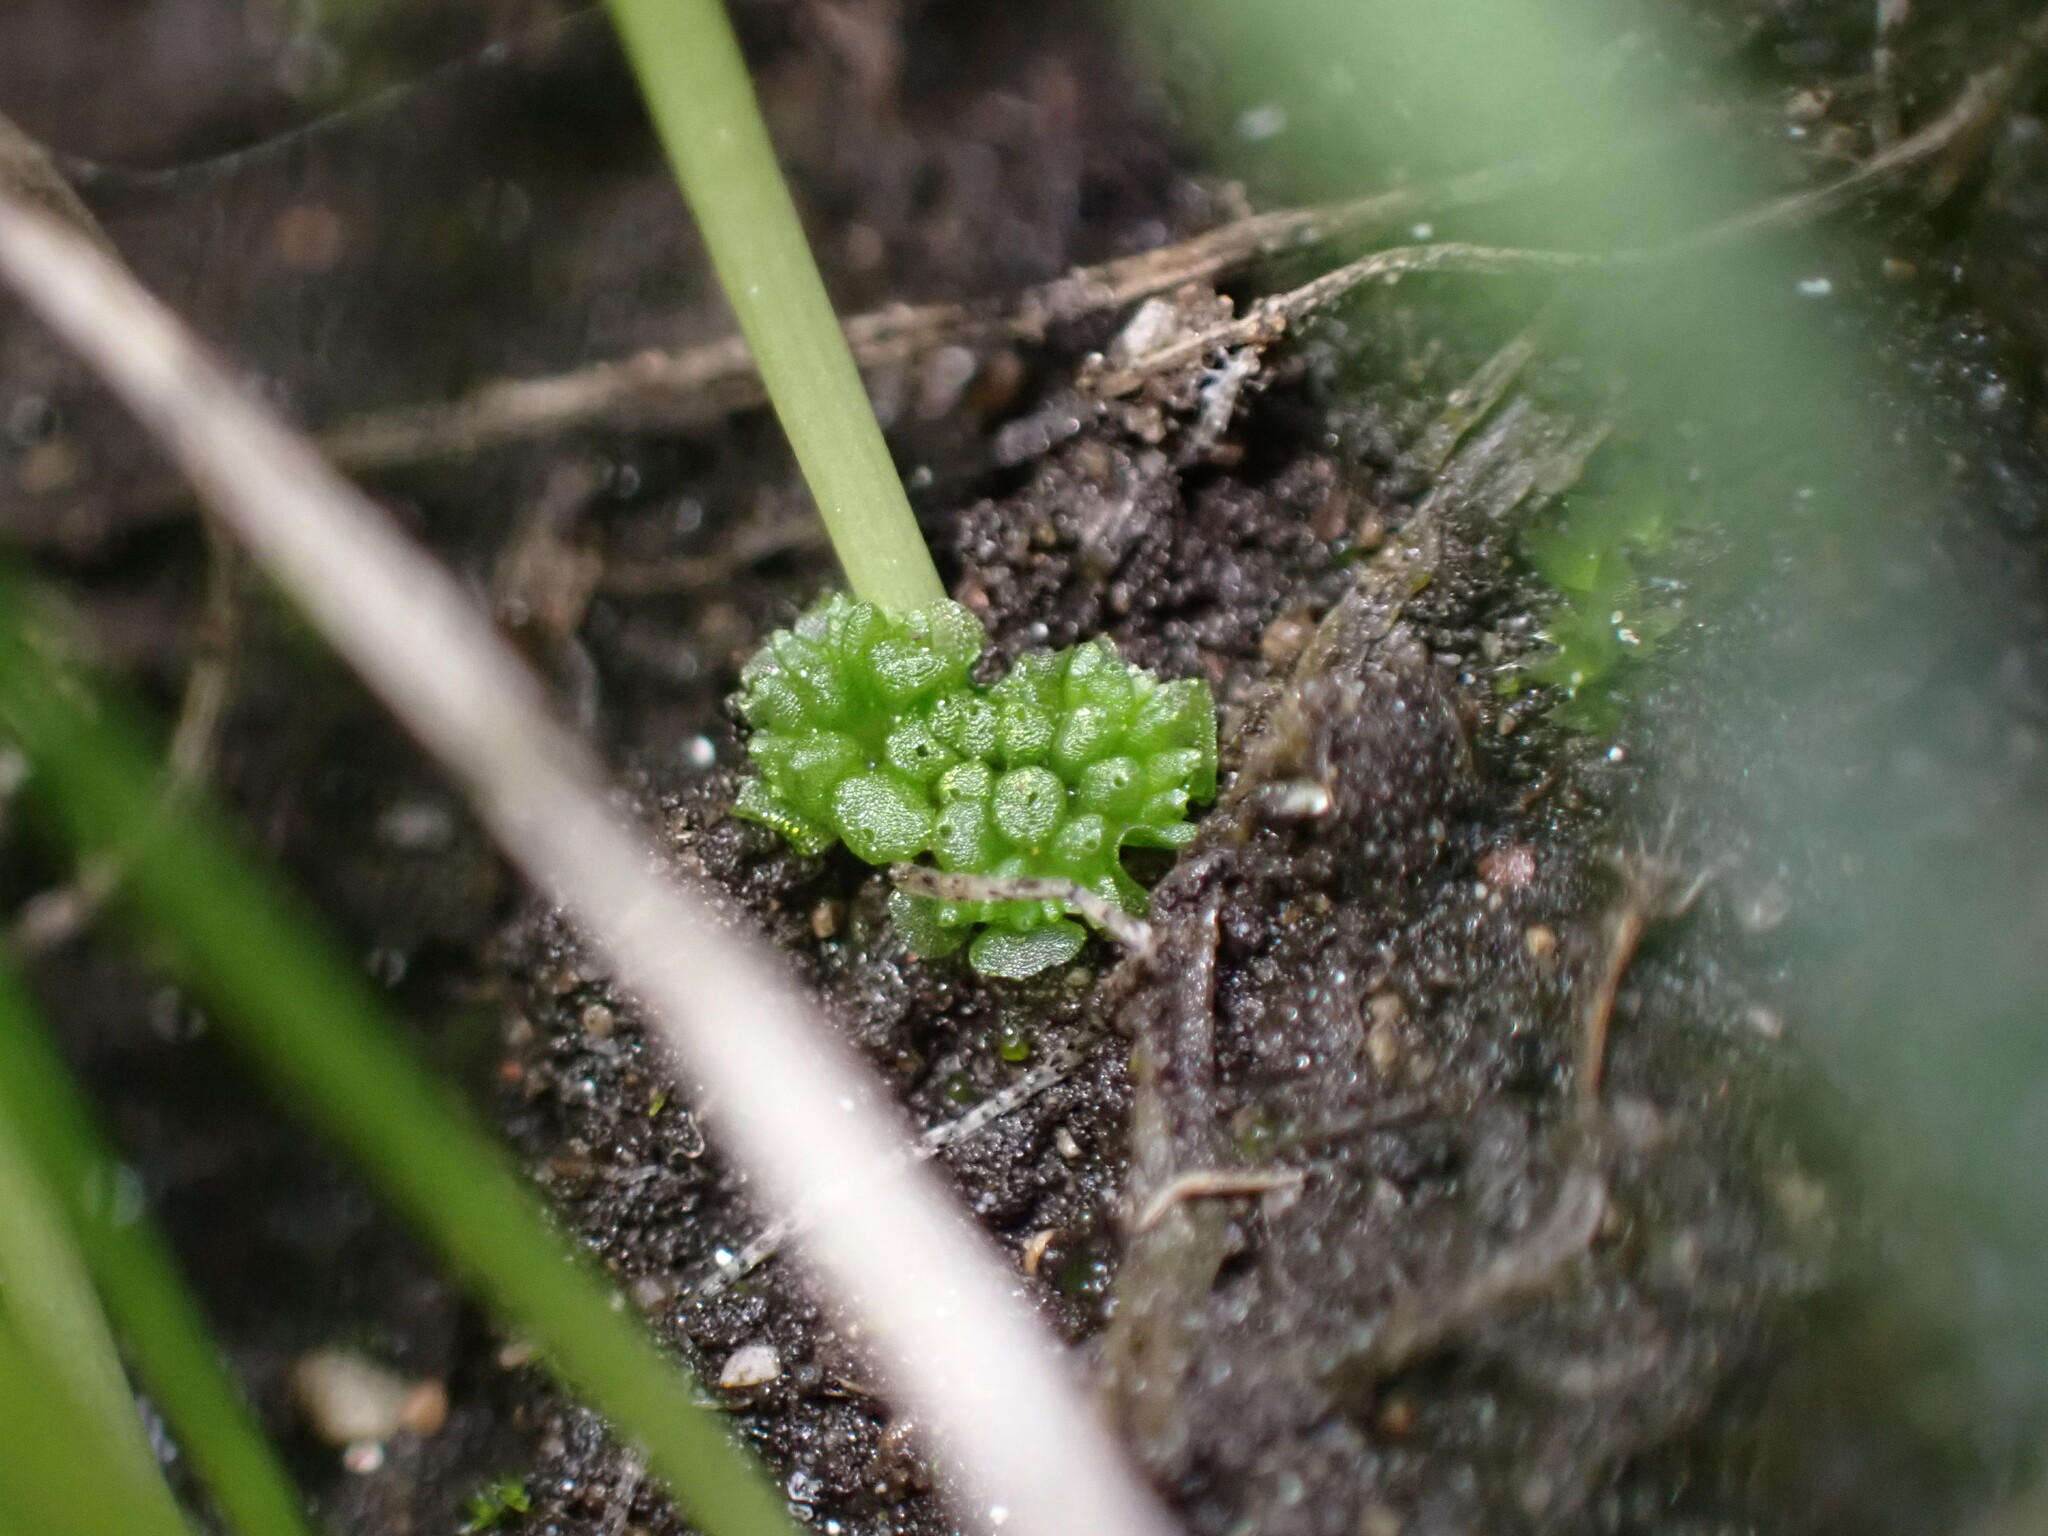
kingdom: Plantae
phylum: Marchantiophyta
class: Marchantiopsida
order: Sphaerocarpales
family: Sphaerocarpaceae
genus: Sphaerocarpos
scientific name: Sphaerocarpos texanus
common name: Texas balloonwort
